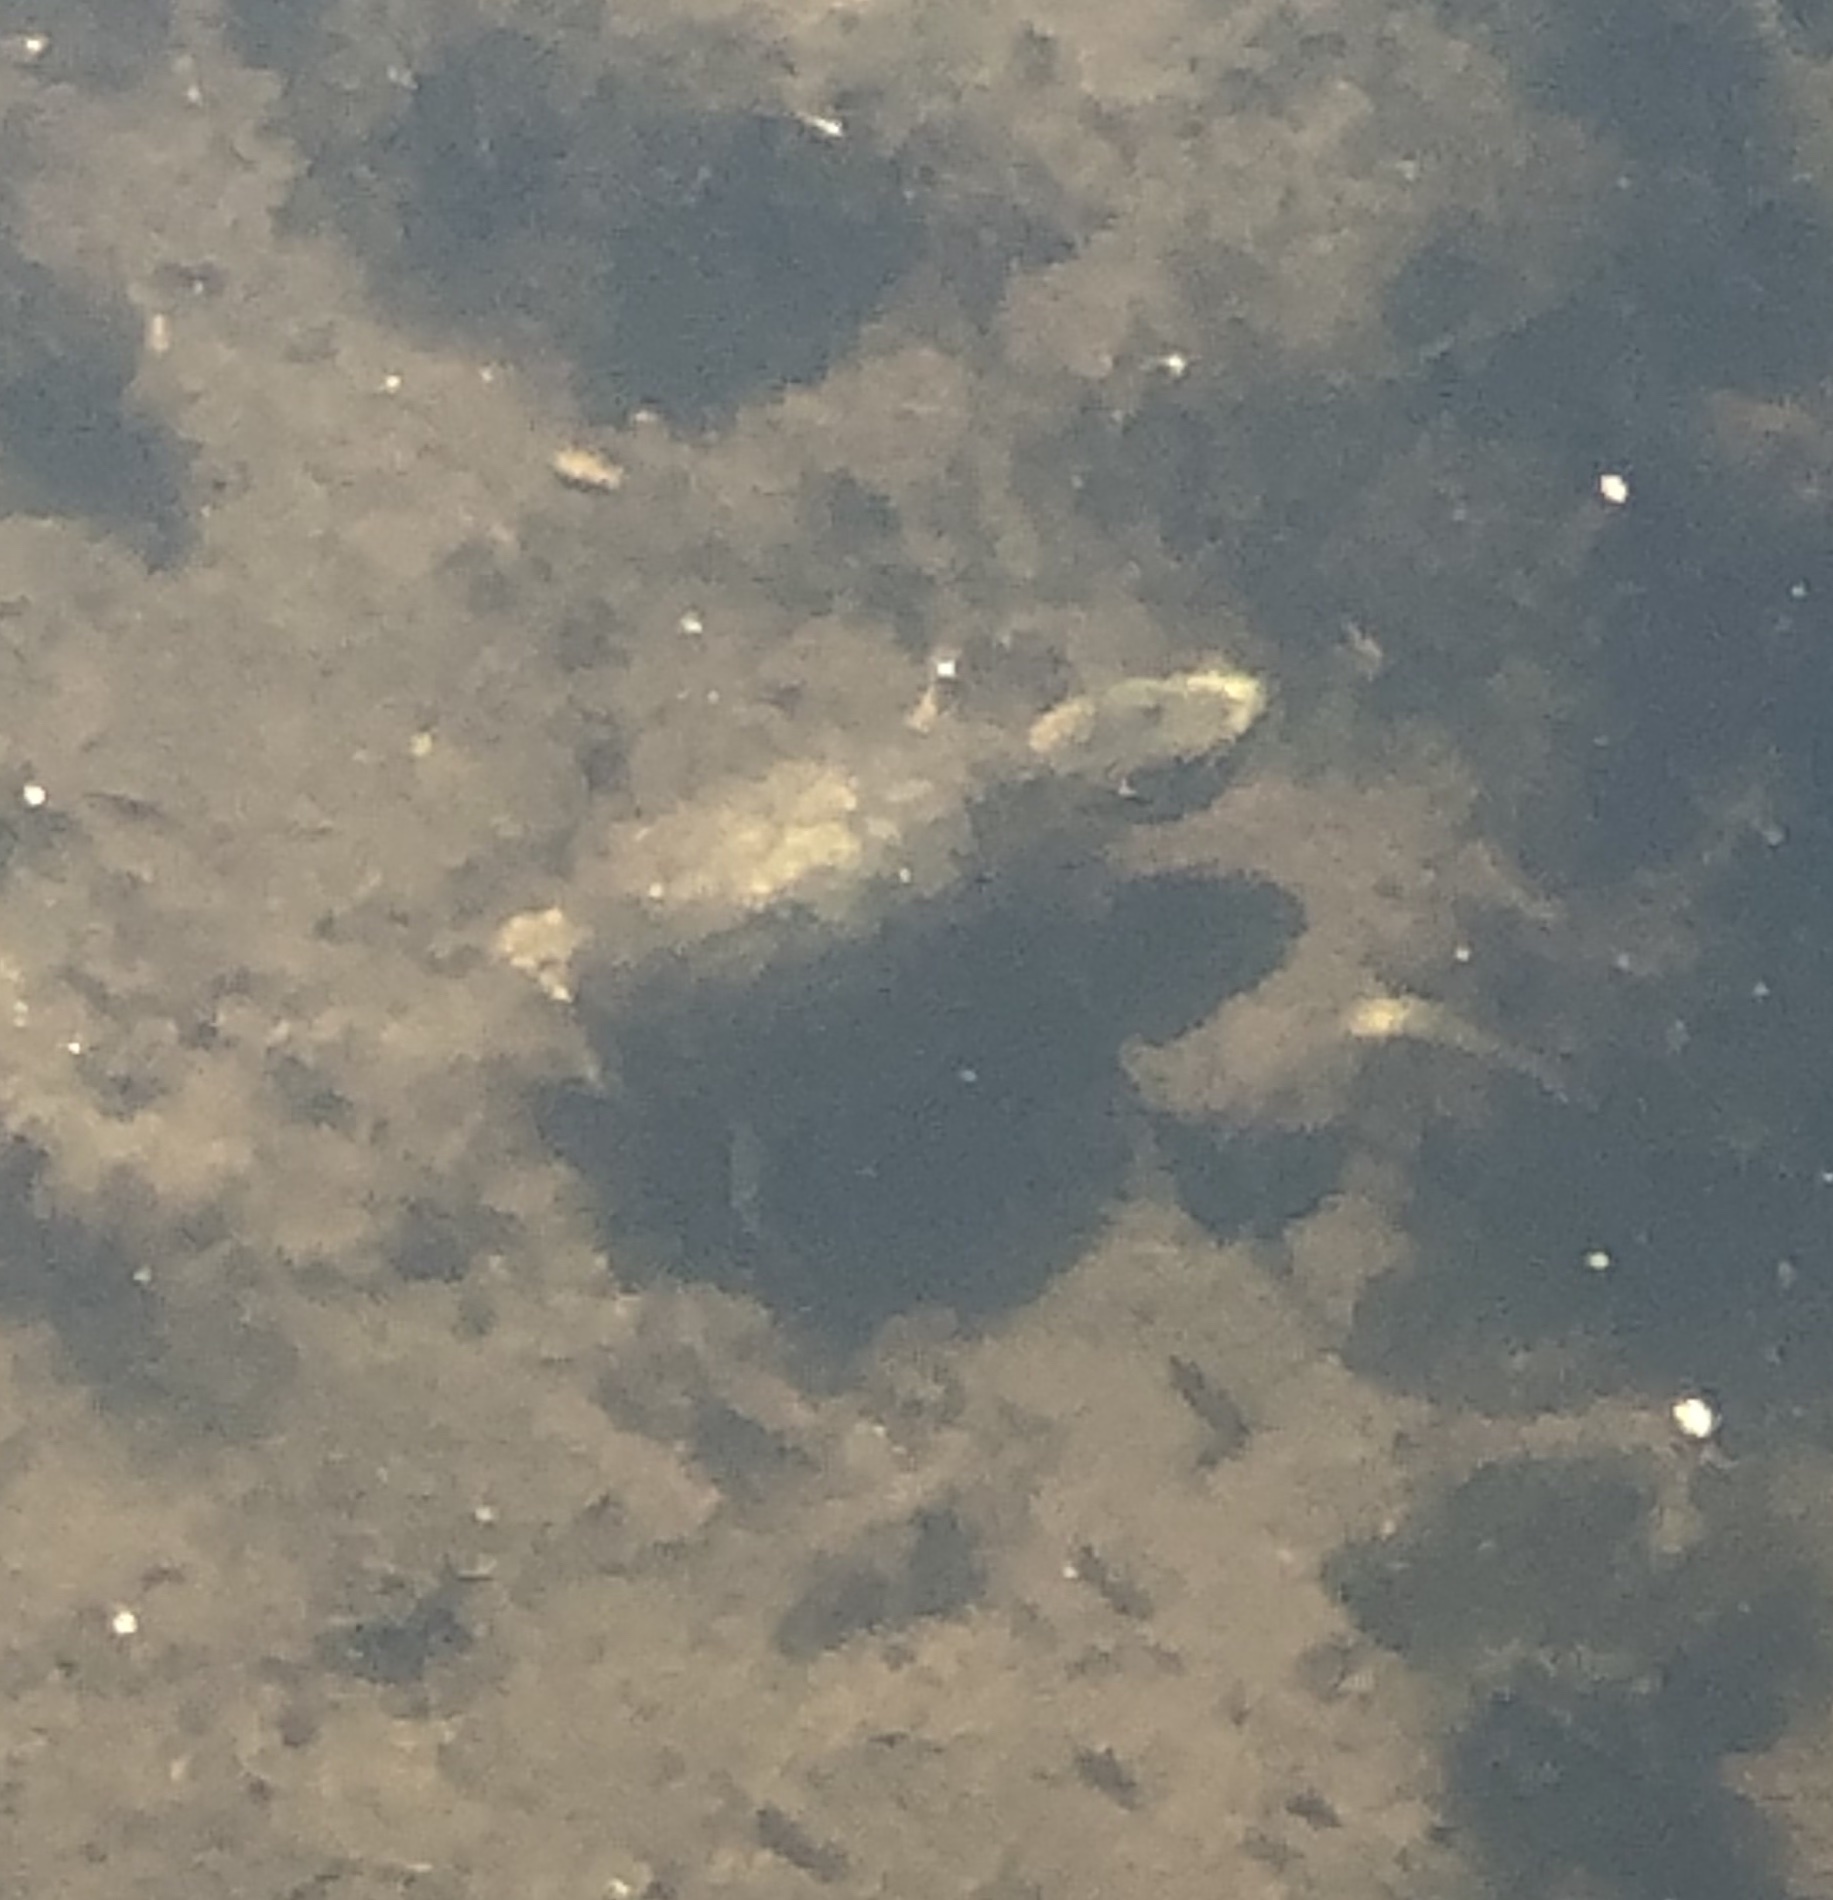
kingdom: Animalia
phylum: Chordata
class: Testudines
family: Kinosternidae
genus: Sternotherus
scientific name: Sternotherus odoratus
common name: Common musk turtle
